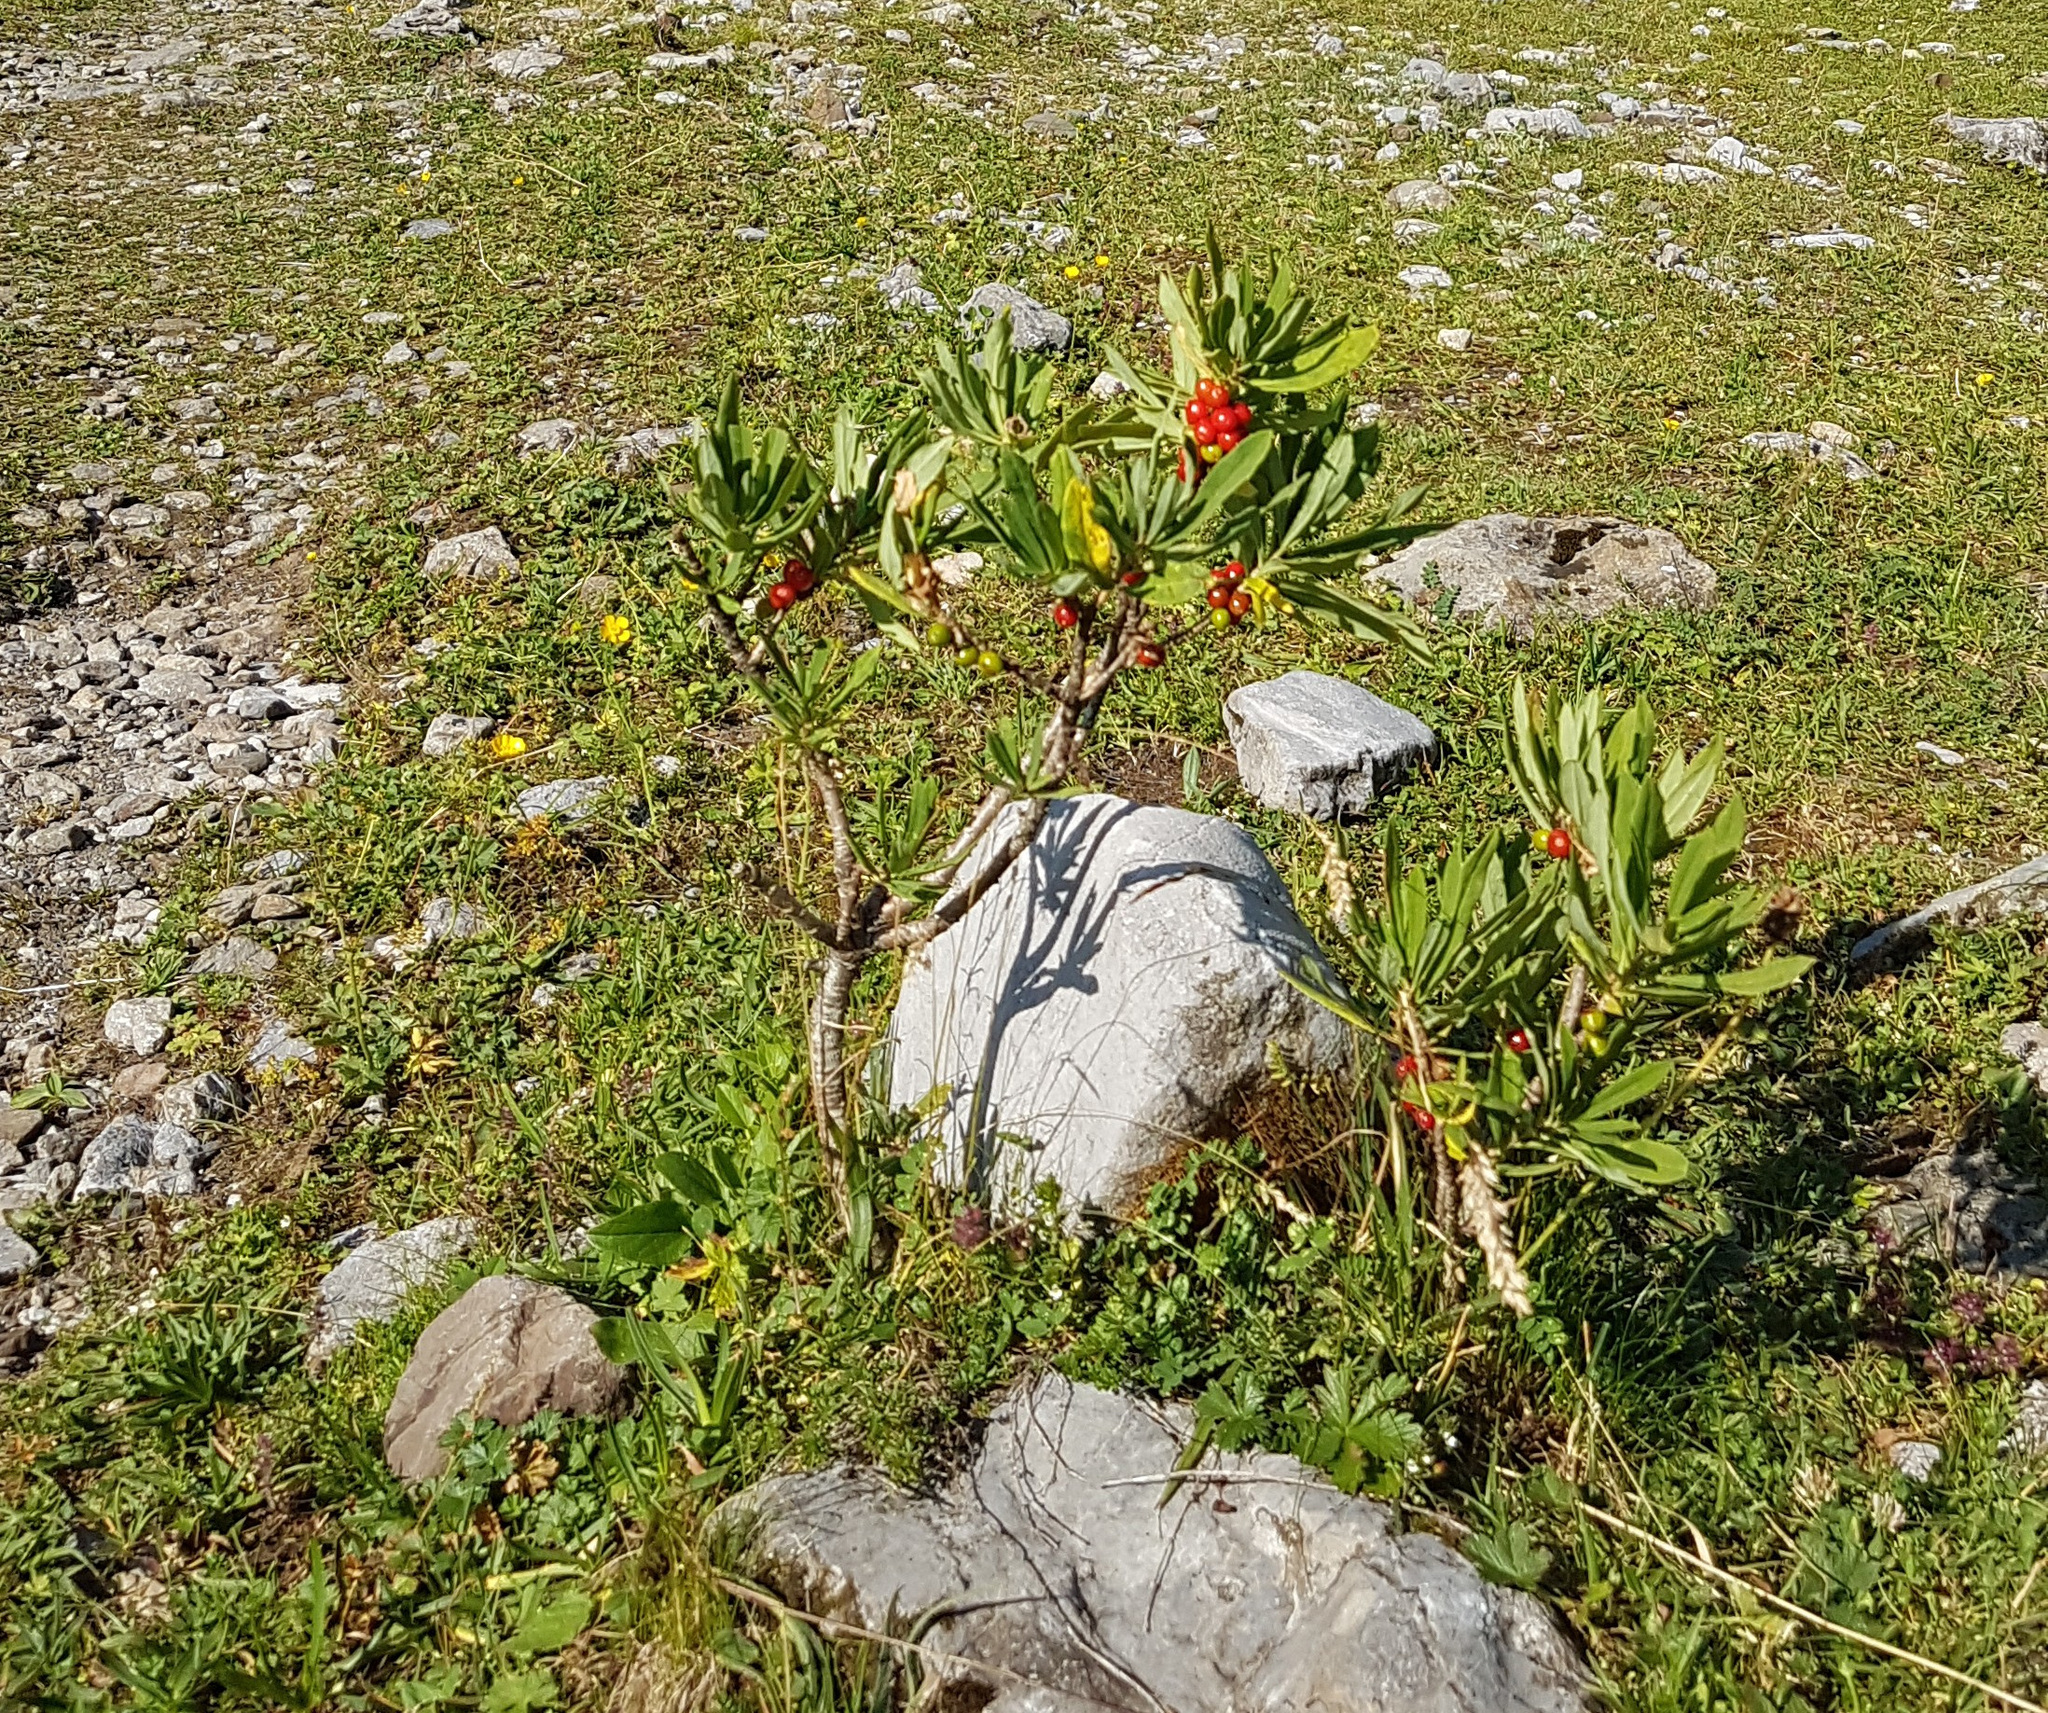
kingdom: Plantae
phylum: Tracheophyta
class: Magnoliopsida
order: Malvales
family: Thymelaeaceae
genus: Daphne
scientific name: Daphne mezereum
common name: Mezereon
